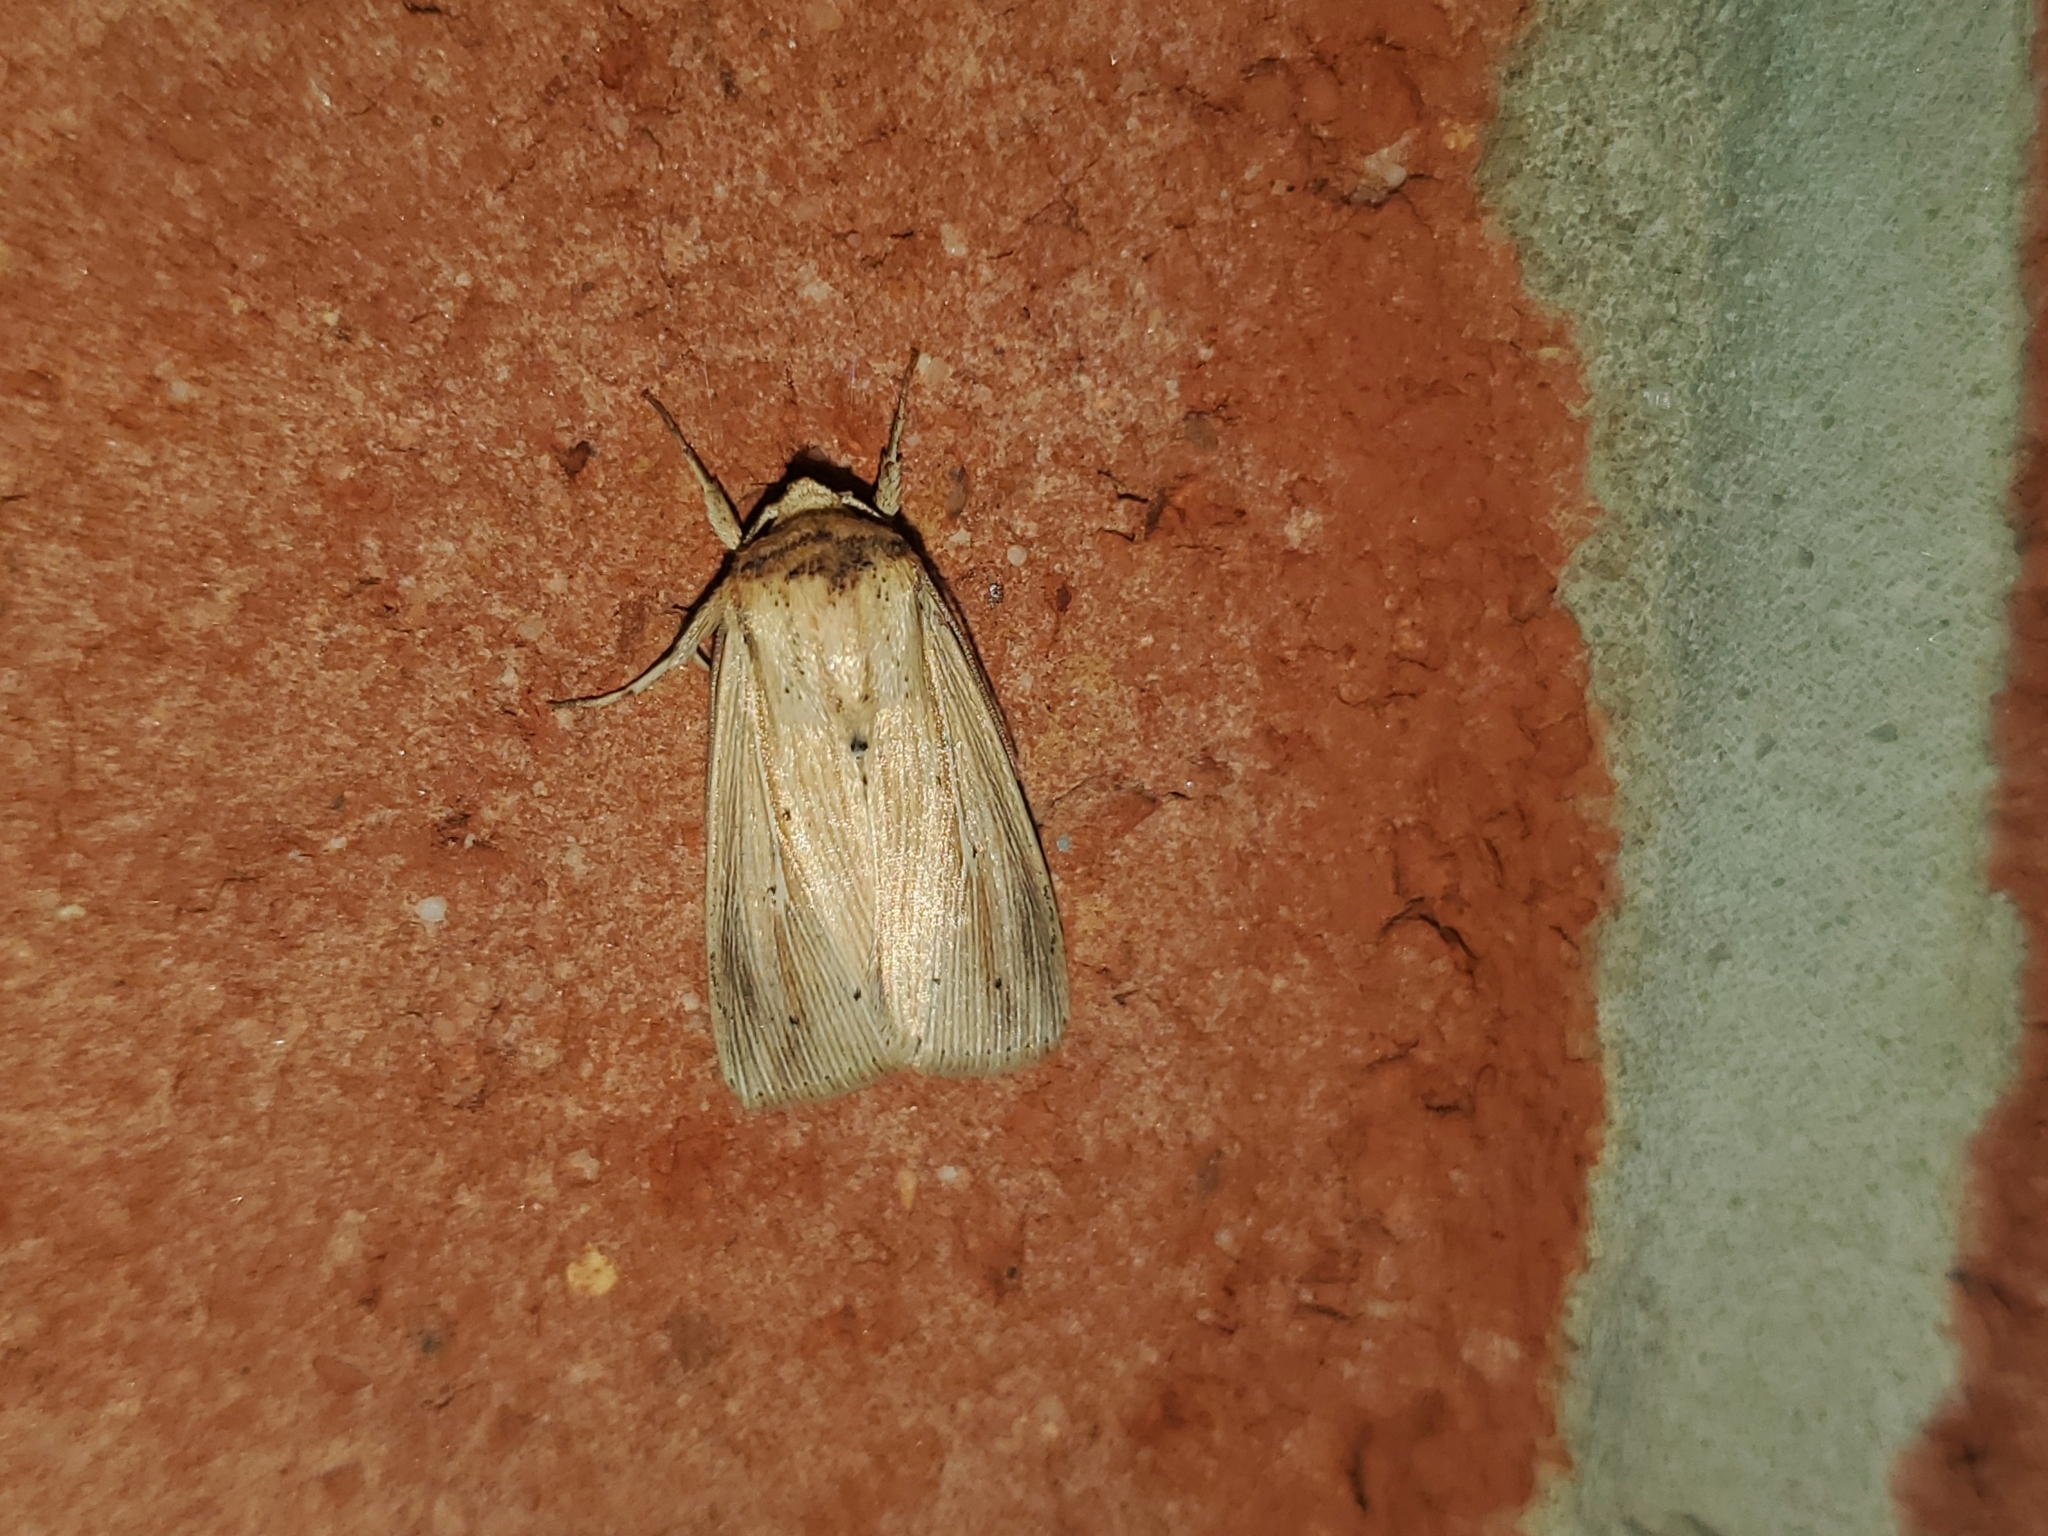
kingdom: Animalia
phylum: Arthropoda
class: Insecta
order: Lepidoptera
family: Noctuidae
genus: Leucania
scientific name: Leucania adjuta
